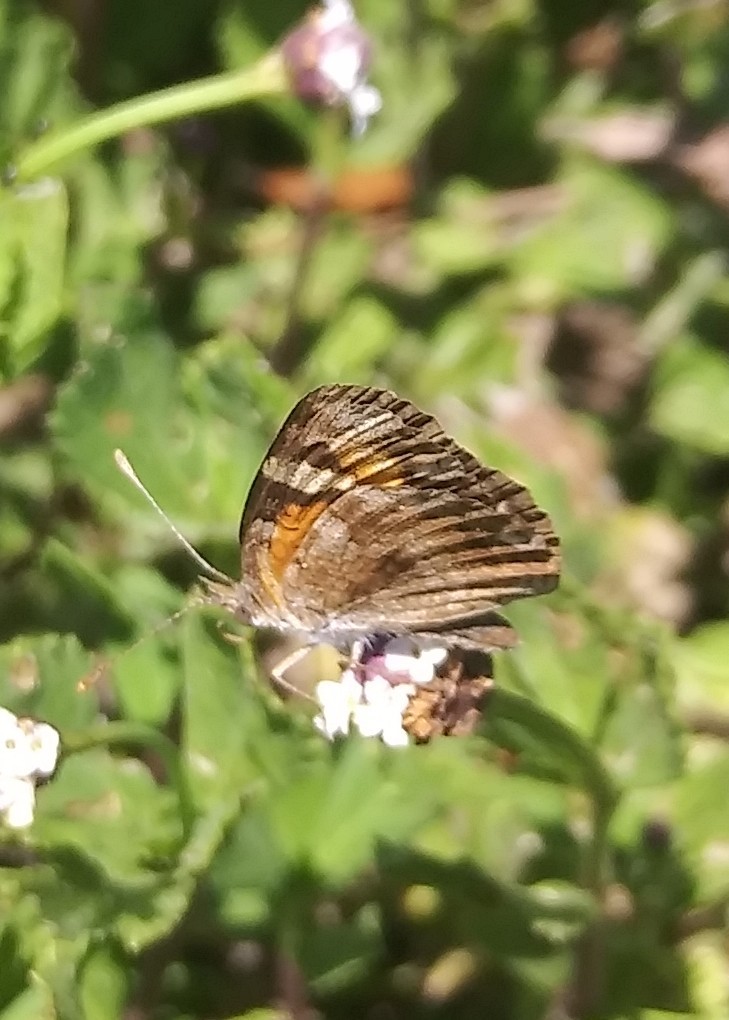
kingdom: Animalia
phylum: Arthropoda
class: Insecta
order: Lepidoptera
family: Nymphalidae
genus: Phyciodes
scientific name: Phyciodes phaon
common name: Phaon crescent
